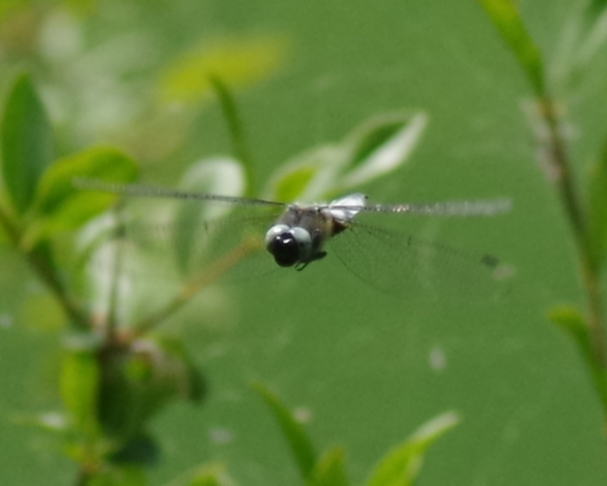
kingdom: Animalia
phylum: Arthropoda
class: Insecta
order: Odonata
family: Libellulidae
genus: Libellula
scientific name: Libellula fulva
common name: Blue chaser
